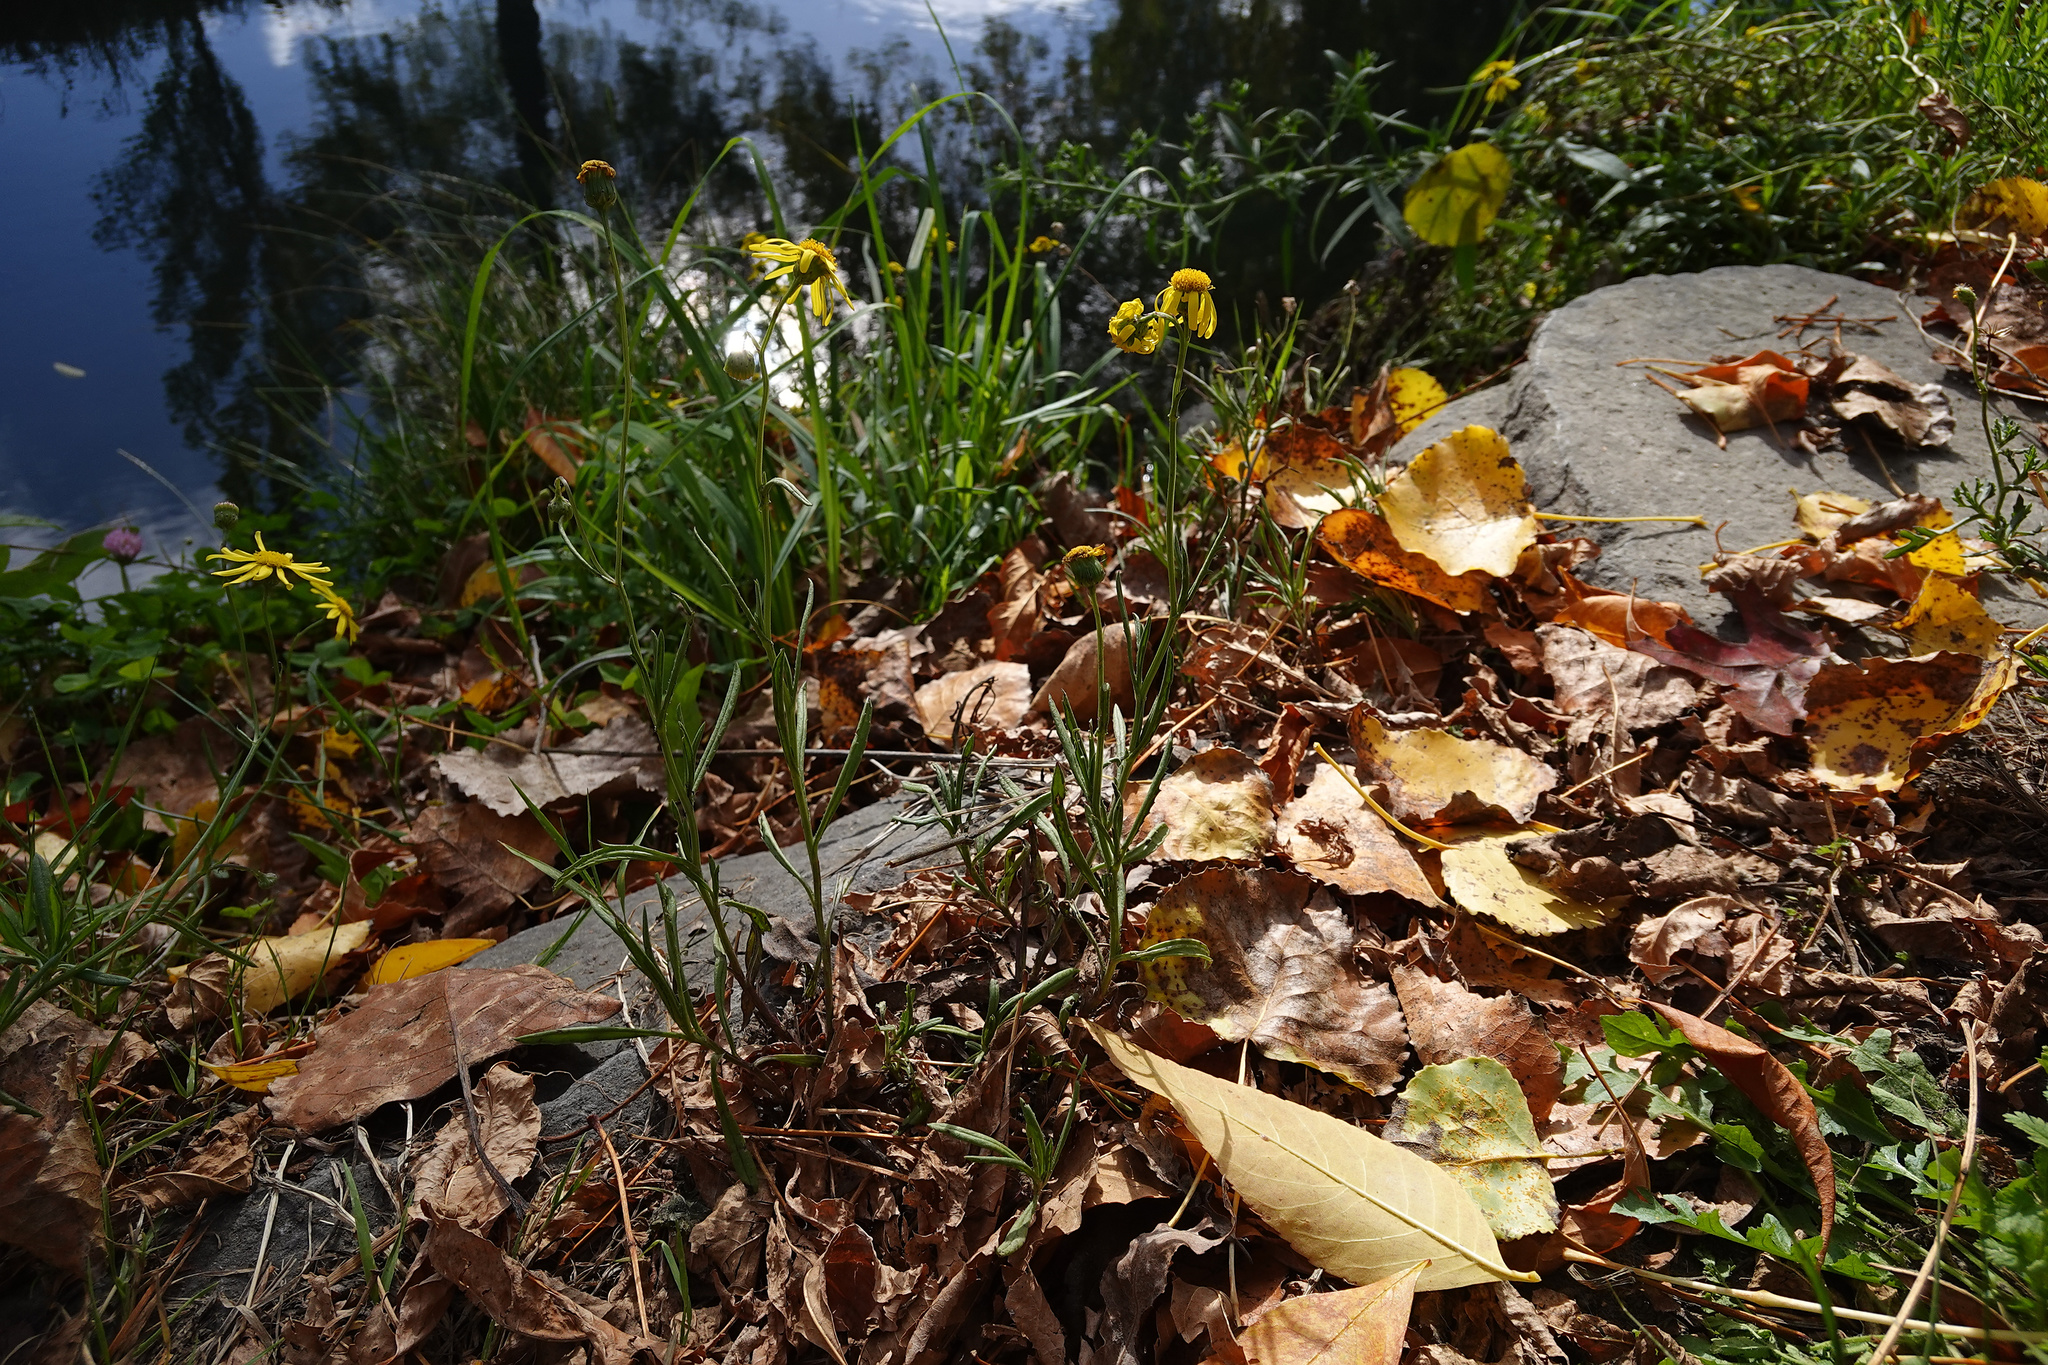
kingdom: Plantae
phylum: Tracheophyta
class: Magnoliopsida
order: Asterales
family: Asteraceae
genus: Senecio
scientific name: Senecio skirrhodon
